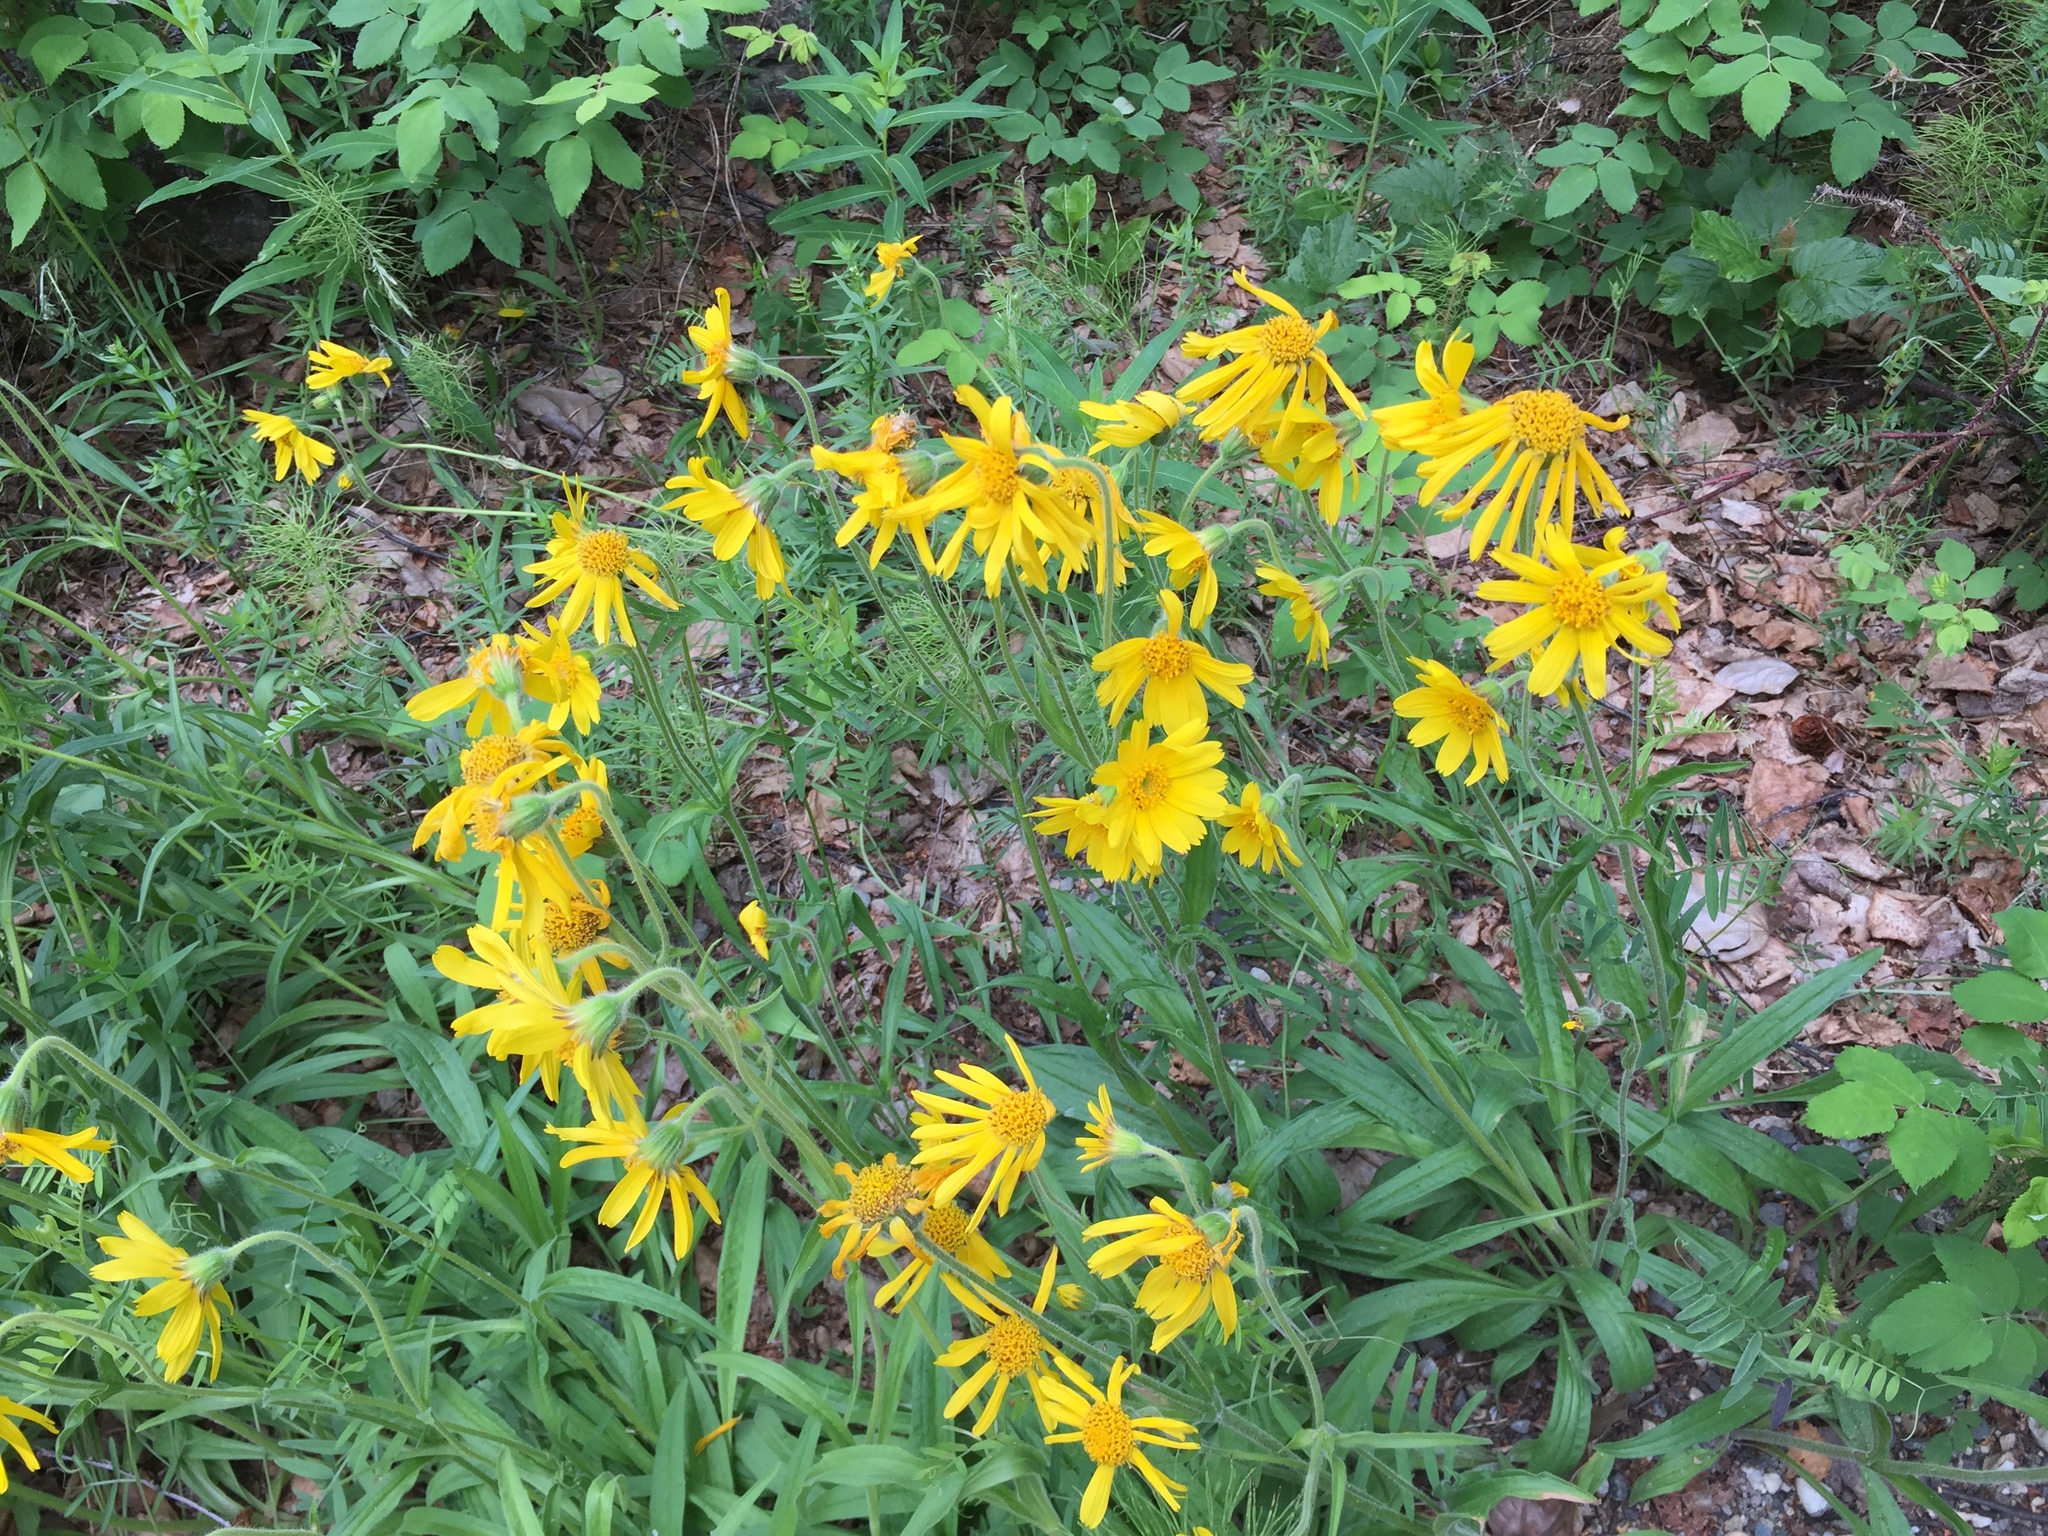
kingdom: Plantae
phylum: Tracheophyta
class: Magnoliopsida
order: Asterales
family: Asteraceae
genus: Arnica
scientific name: Arnica lonchophylla
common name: Northern arnica
